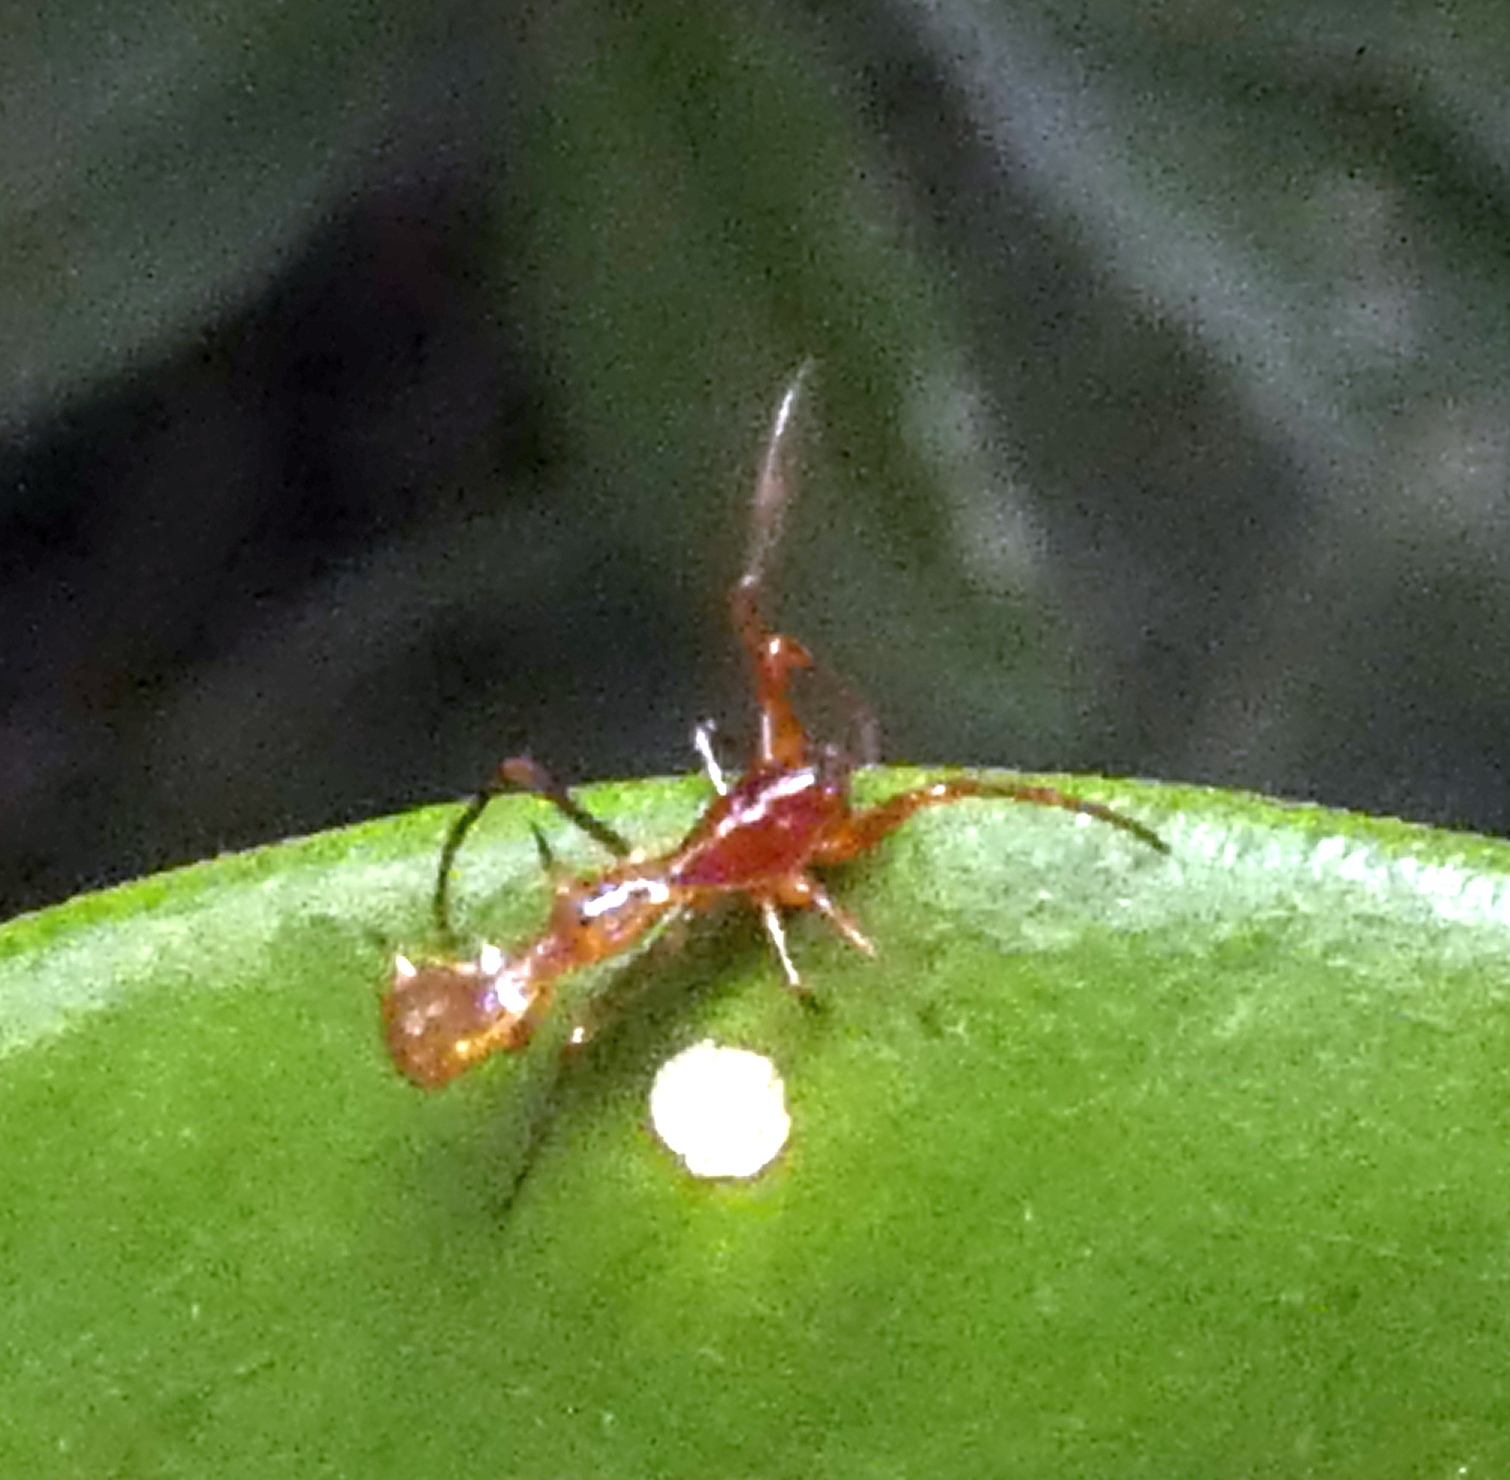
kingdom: Animalia
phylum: Arthropoda
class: Arachnida
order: Araneae
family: Araneidae
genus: Micrathena
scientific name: Micrathena schreibersi
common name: Orb weavers
